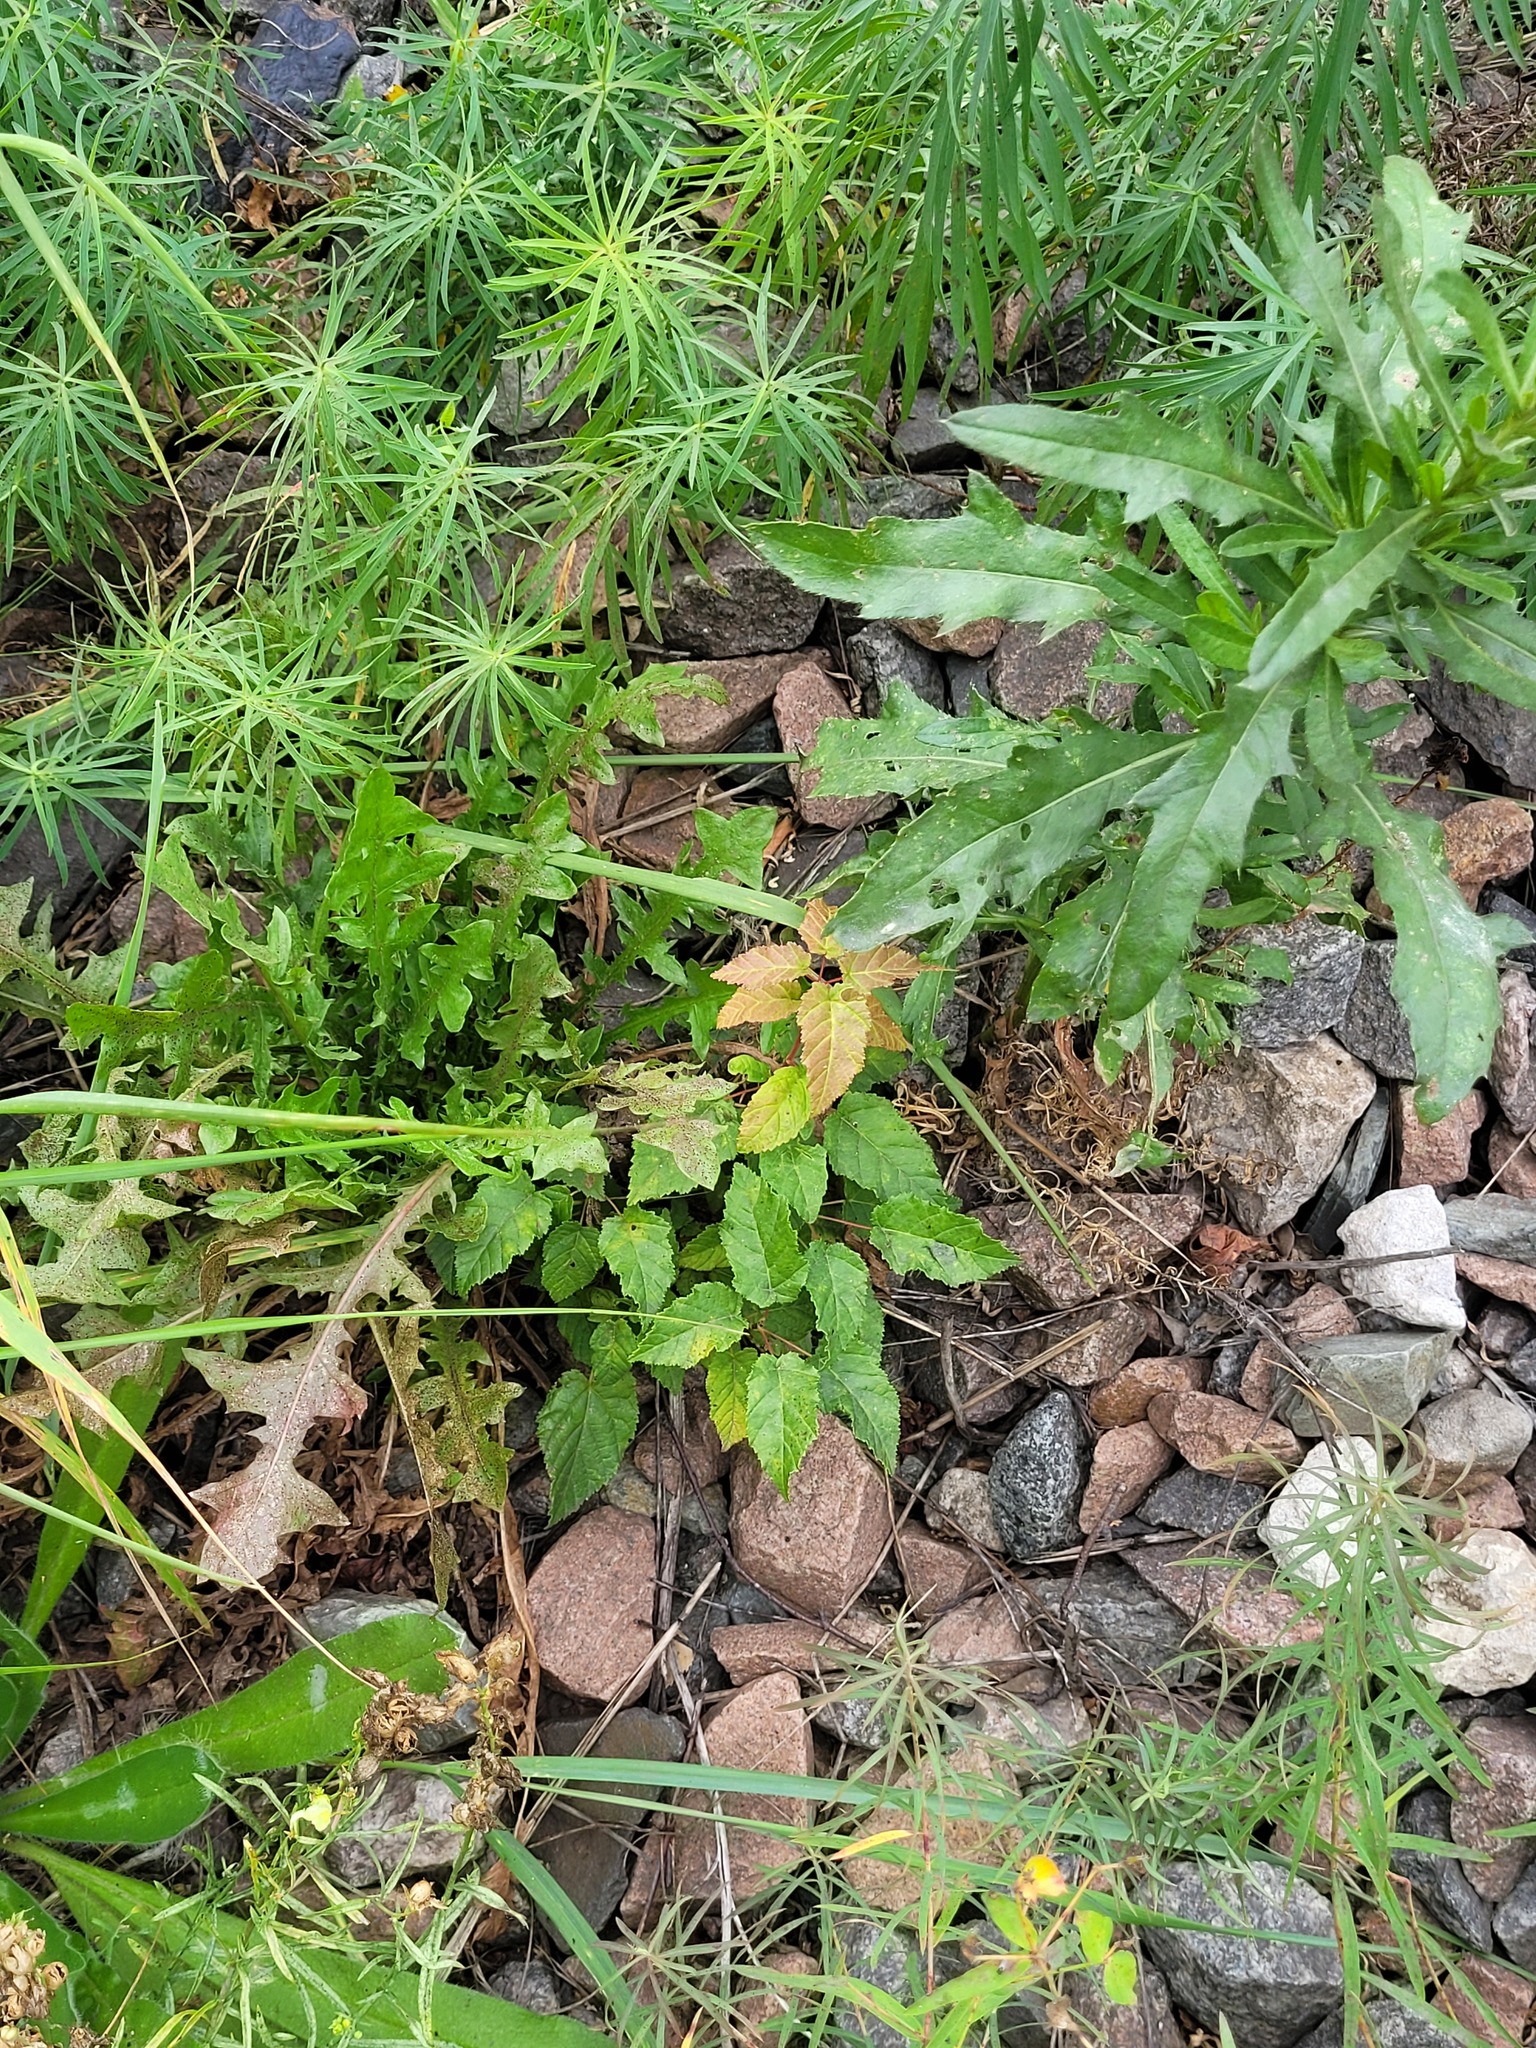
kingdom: Plantae
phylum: Tracheophyta
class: Magnoliopsida
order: Sapindales
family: Sapindaceae
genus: Acer
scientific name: Acer tataricum
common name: Tartar maple
